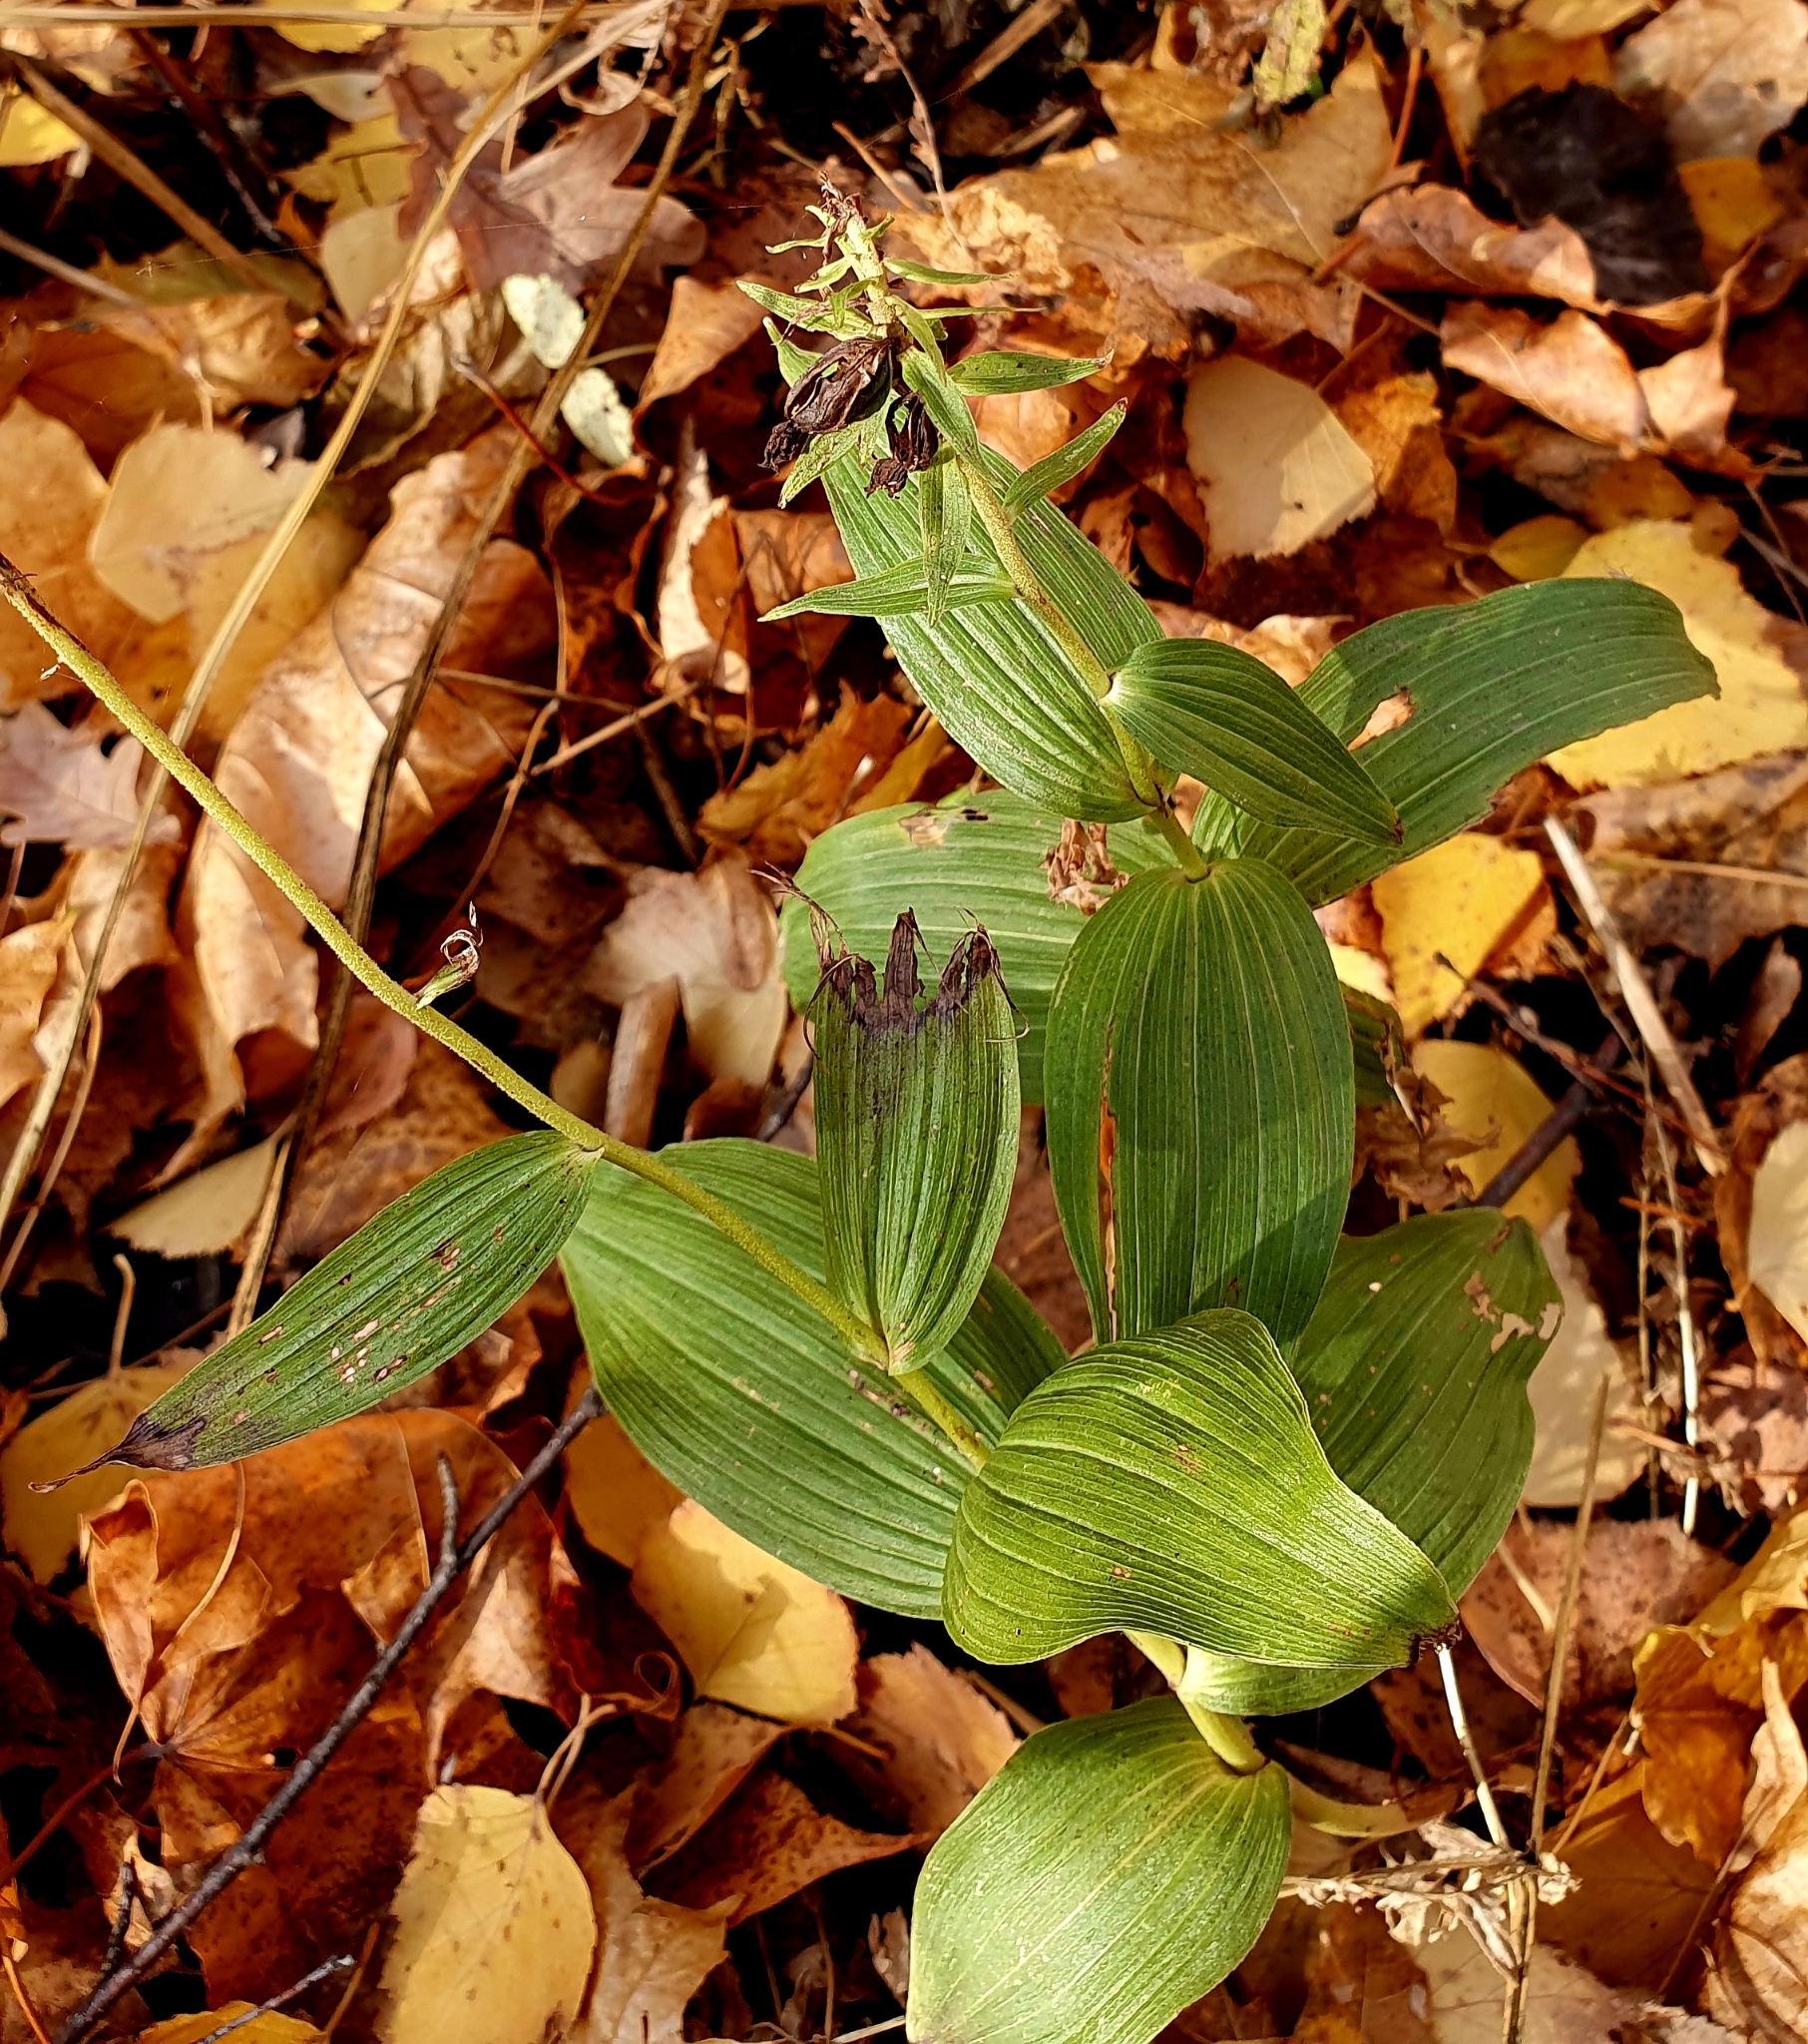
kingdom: Plantae
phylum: Tracheophyta
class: Liliopsida
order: Asparagales
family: Orchidaceae
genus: Epipactis
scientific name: Epipactis helleborine
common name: Broad-leaved helleborine
